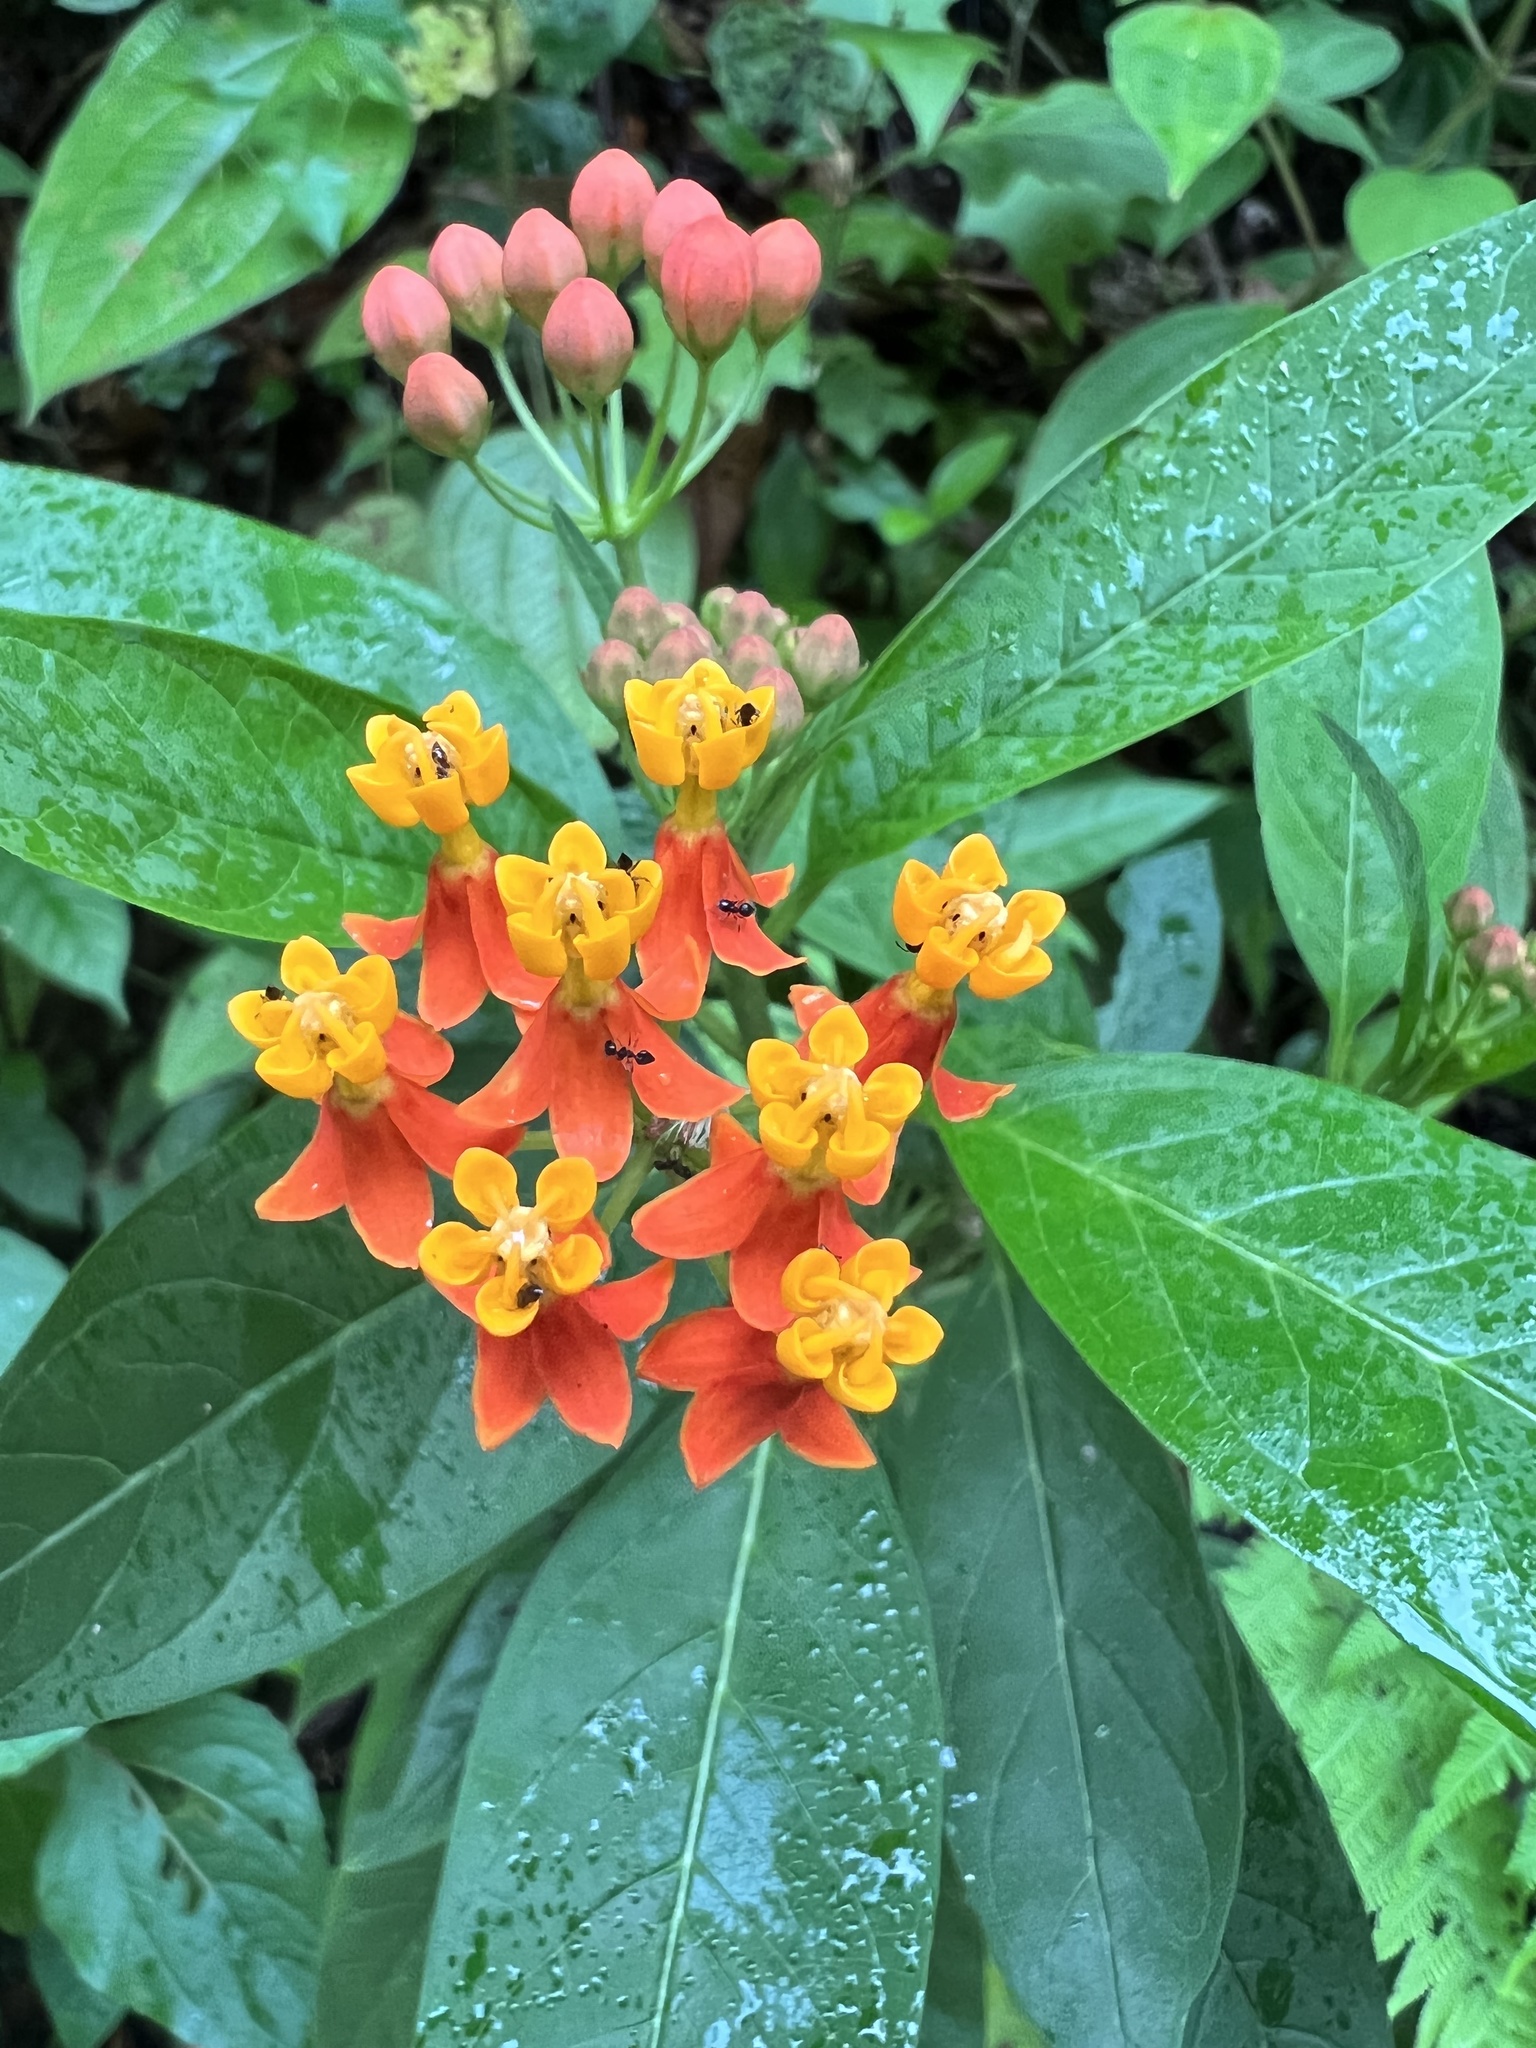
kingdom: Plantae
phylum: Tracheophyta
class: Magnoliopsida
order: Gentianales
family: Apocynaceae
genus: Asclepias
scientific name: Asclepias curassavica
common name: Bloodflower
